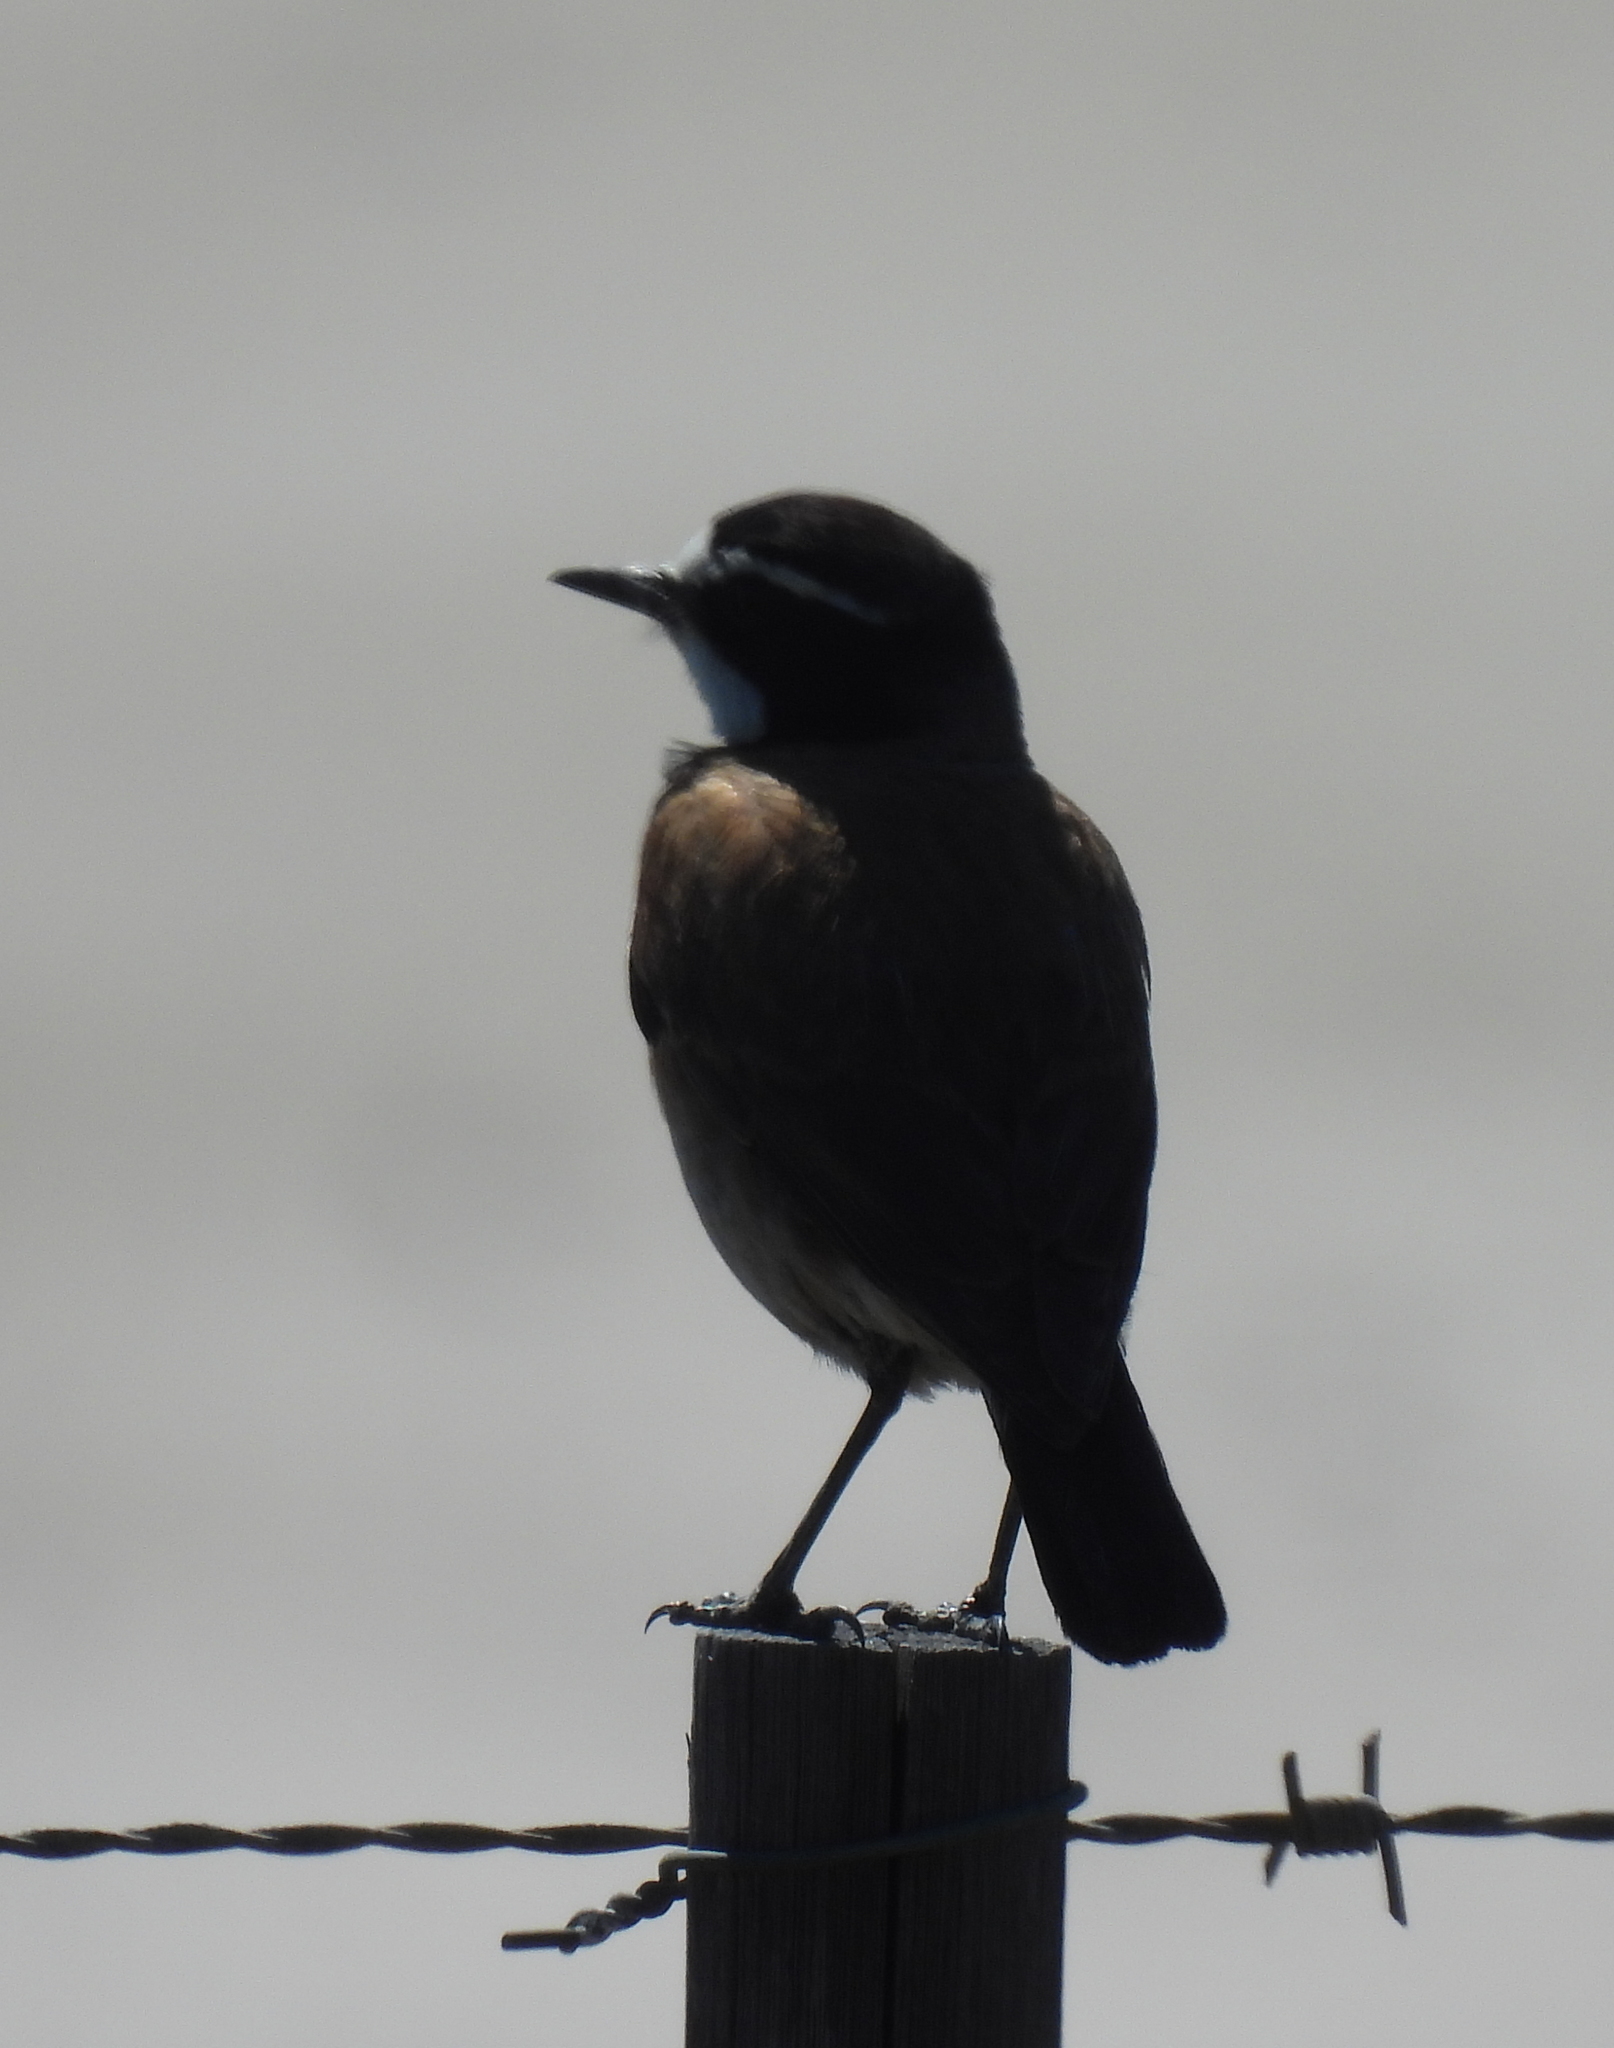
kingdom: Animalia
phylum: Chordata
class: Aves
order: Passeriformes
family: Muscicapidae
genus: Oenanthe
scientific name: Oenanthe pileata
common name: Capped wheatear
